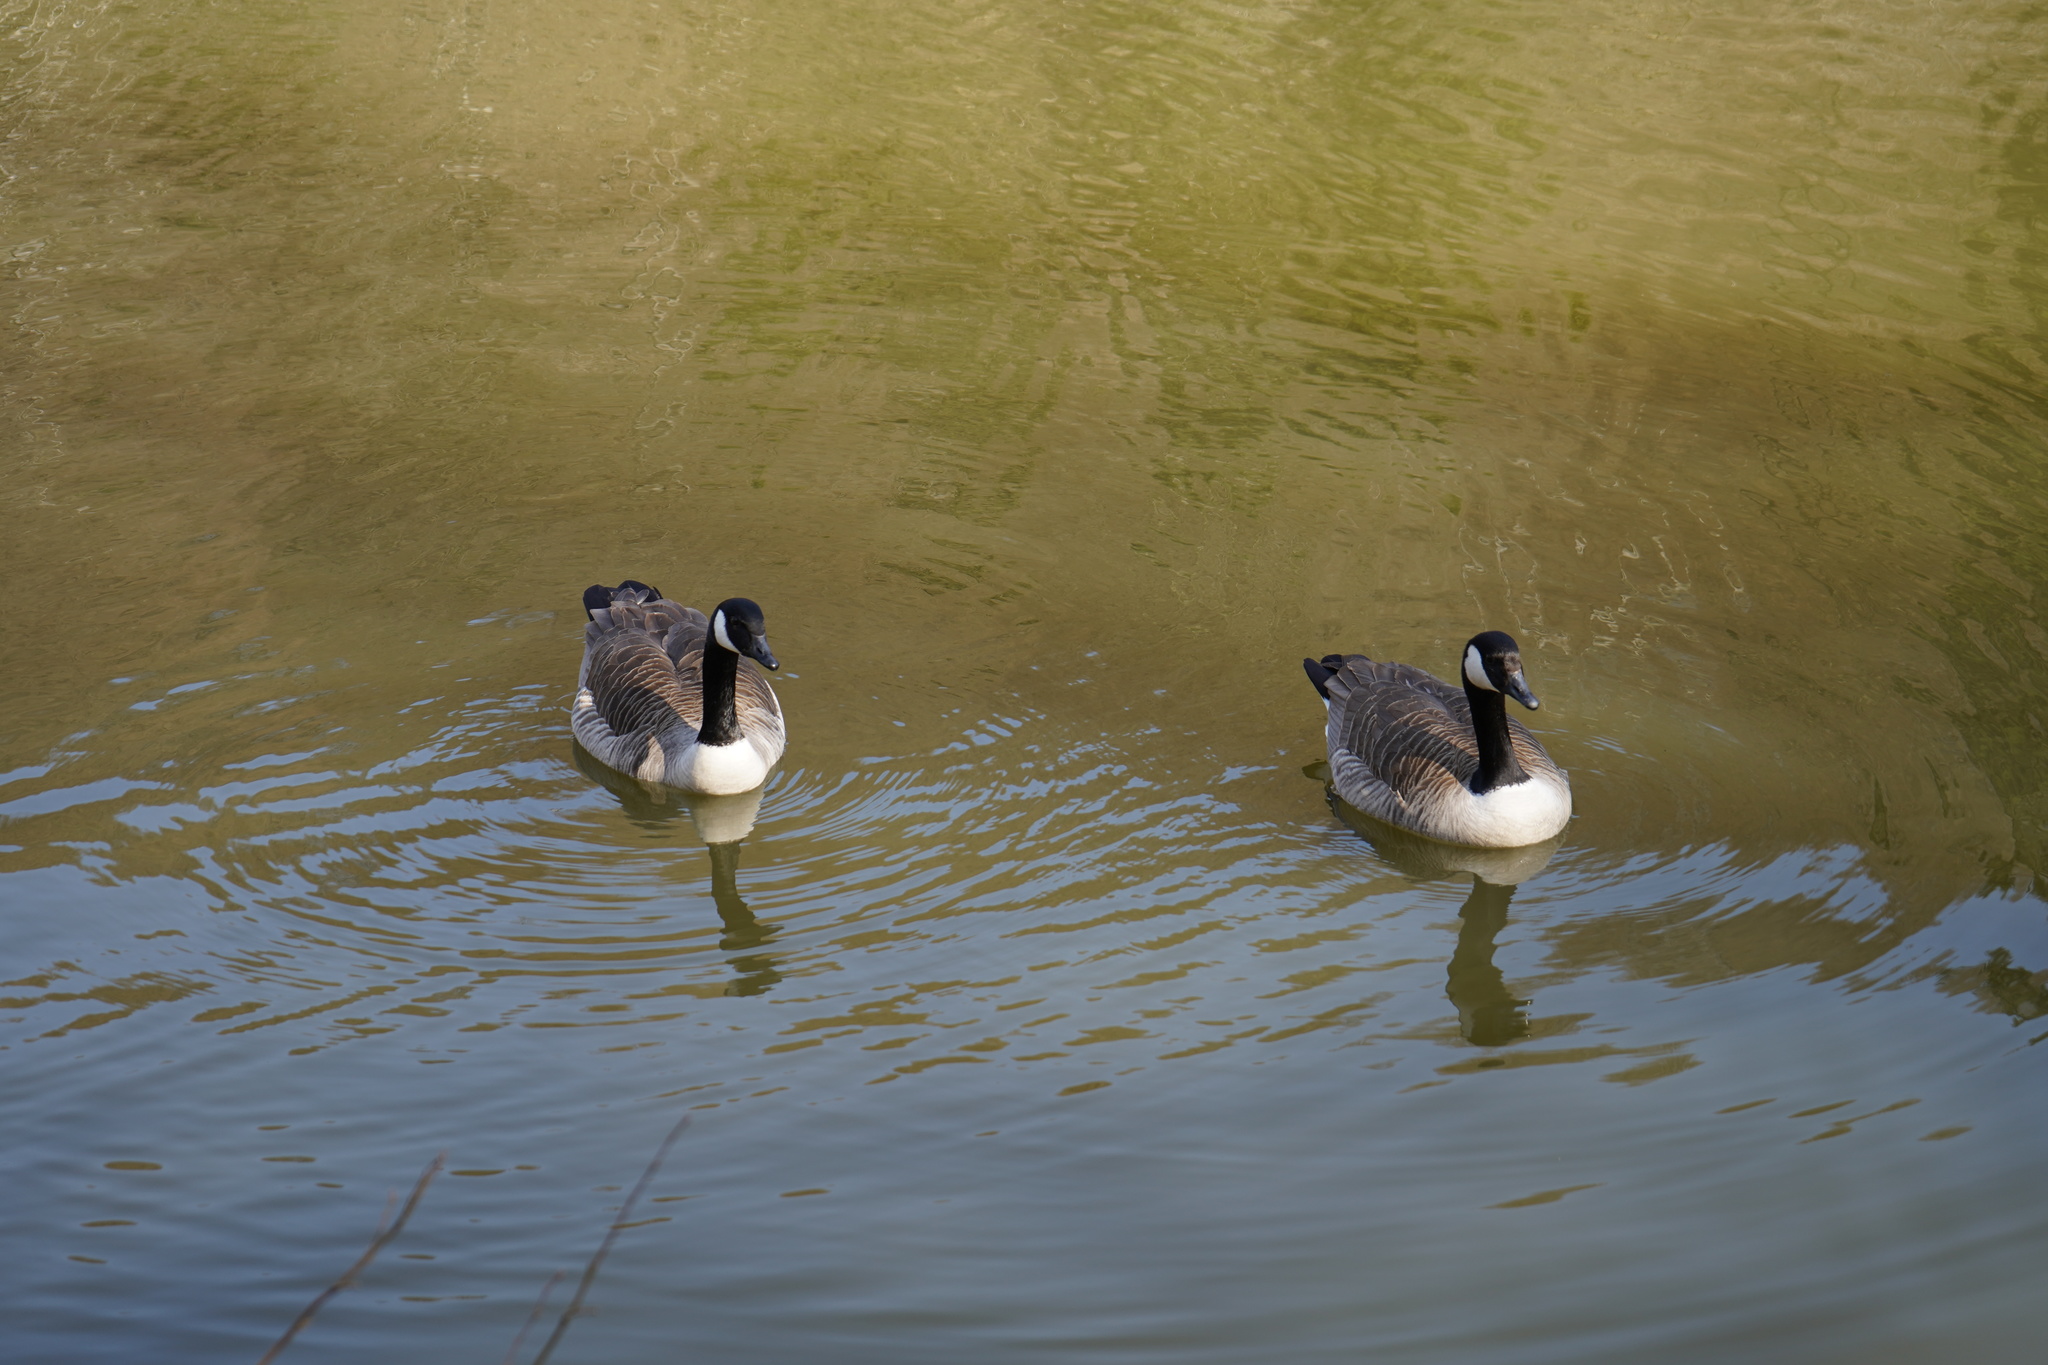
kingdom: Animalia
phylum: Chordata
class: Aves
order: Anseriformes
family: Anatidae
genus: Branta
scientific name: Branta canadensis
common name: Canada goose
